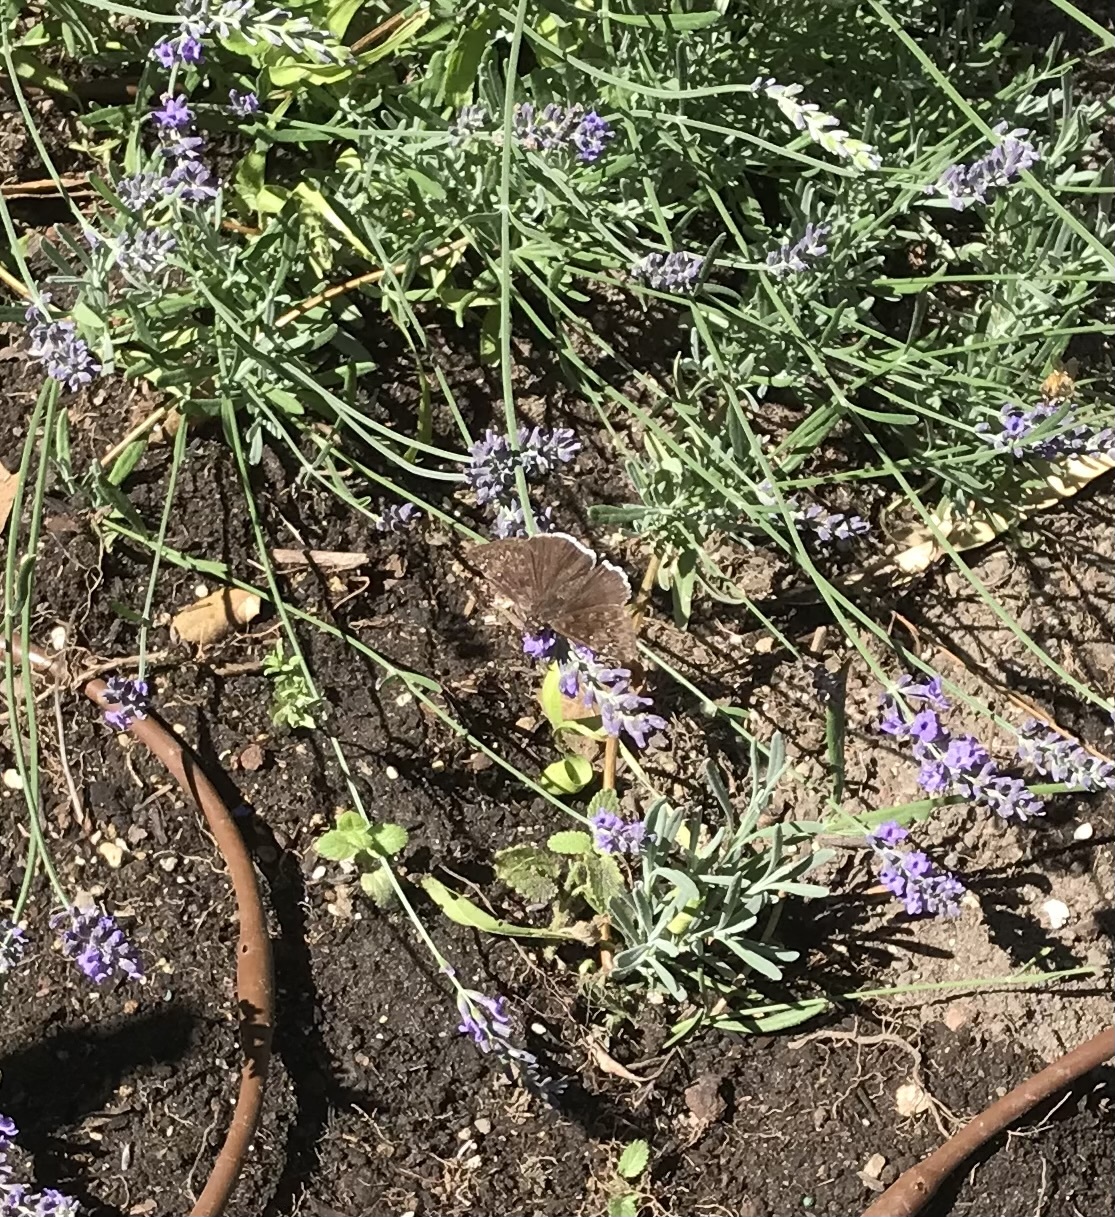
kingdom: Animalia
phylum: Arthropoda
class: Insecta
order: Lepidoptera
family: Hesperiidae
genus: Erynnis
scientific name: Erynnis tristis
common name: Mournful duskywing
